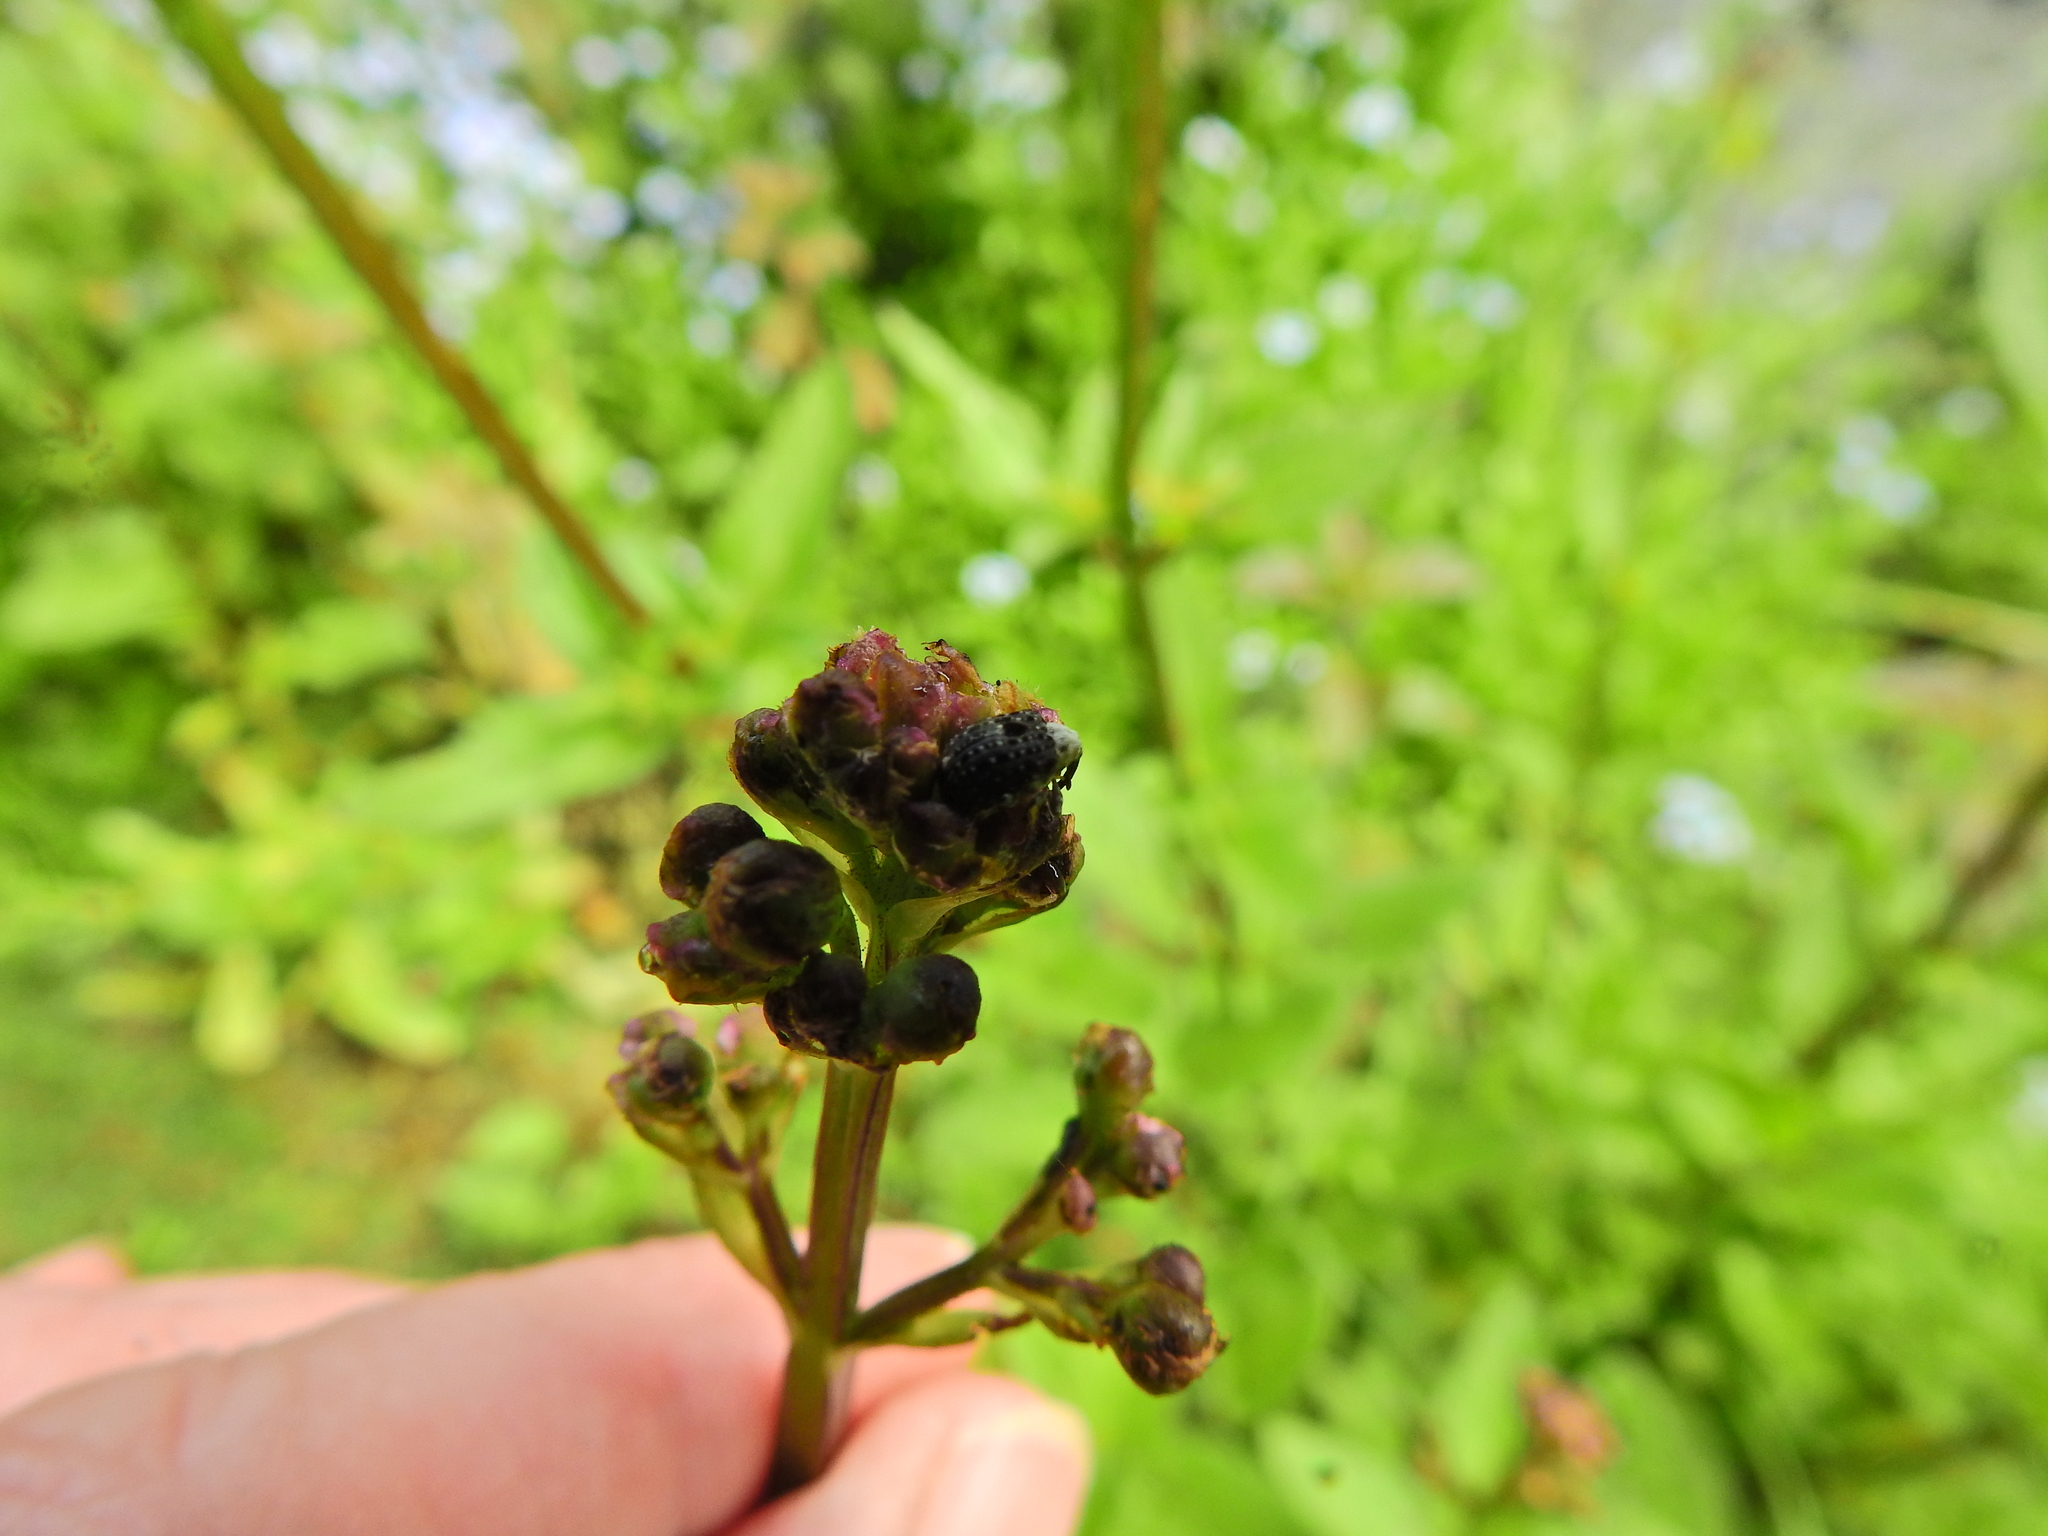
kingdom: Animalia
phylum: Arthropoda
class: Insecta
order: Coleoptera
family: Curculionidae
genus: Cionus
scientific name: Cionus scrophulariae
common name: Common figwort weevil
